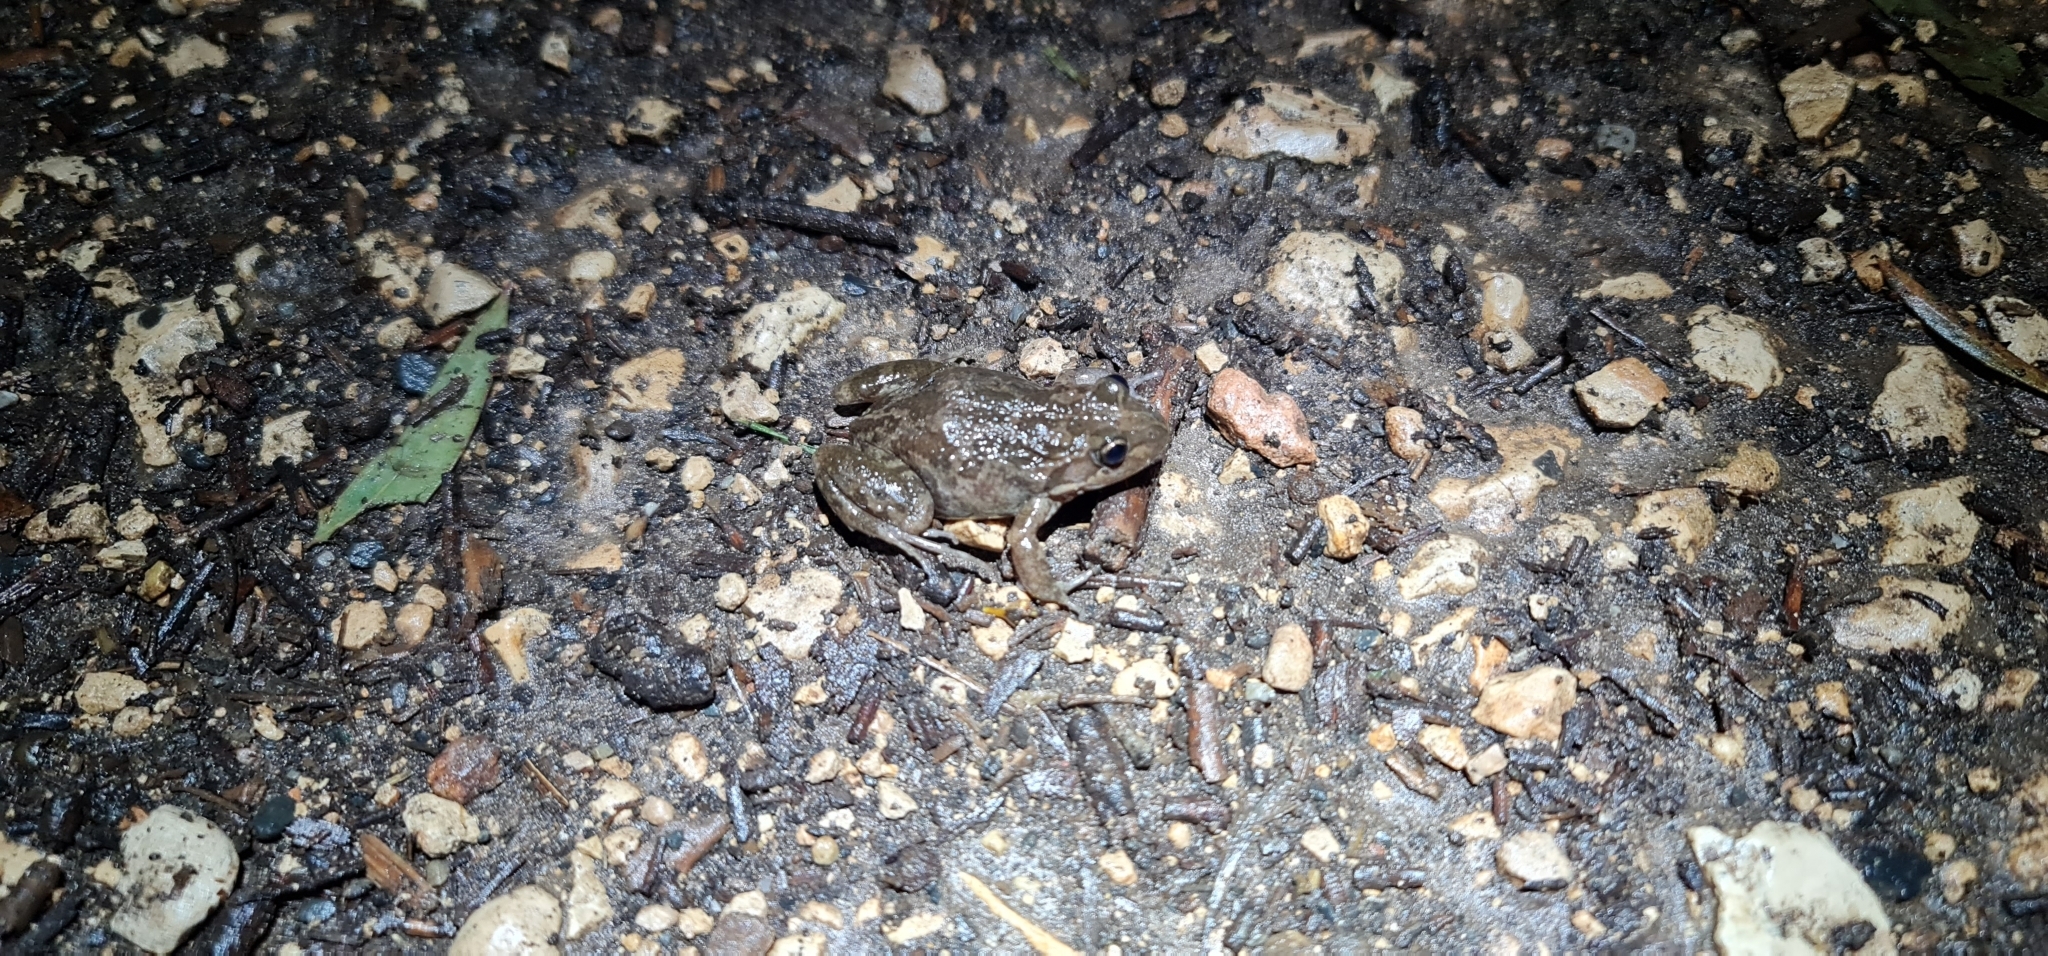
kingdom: Animalia
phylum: Chordata
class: Amphibia
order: Anura
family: Limnodynastidae
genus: Limnodynastes
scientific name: Limnodynastes tasmaniensis
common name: Spotted marsh frog
